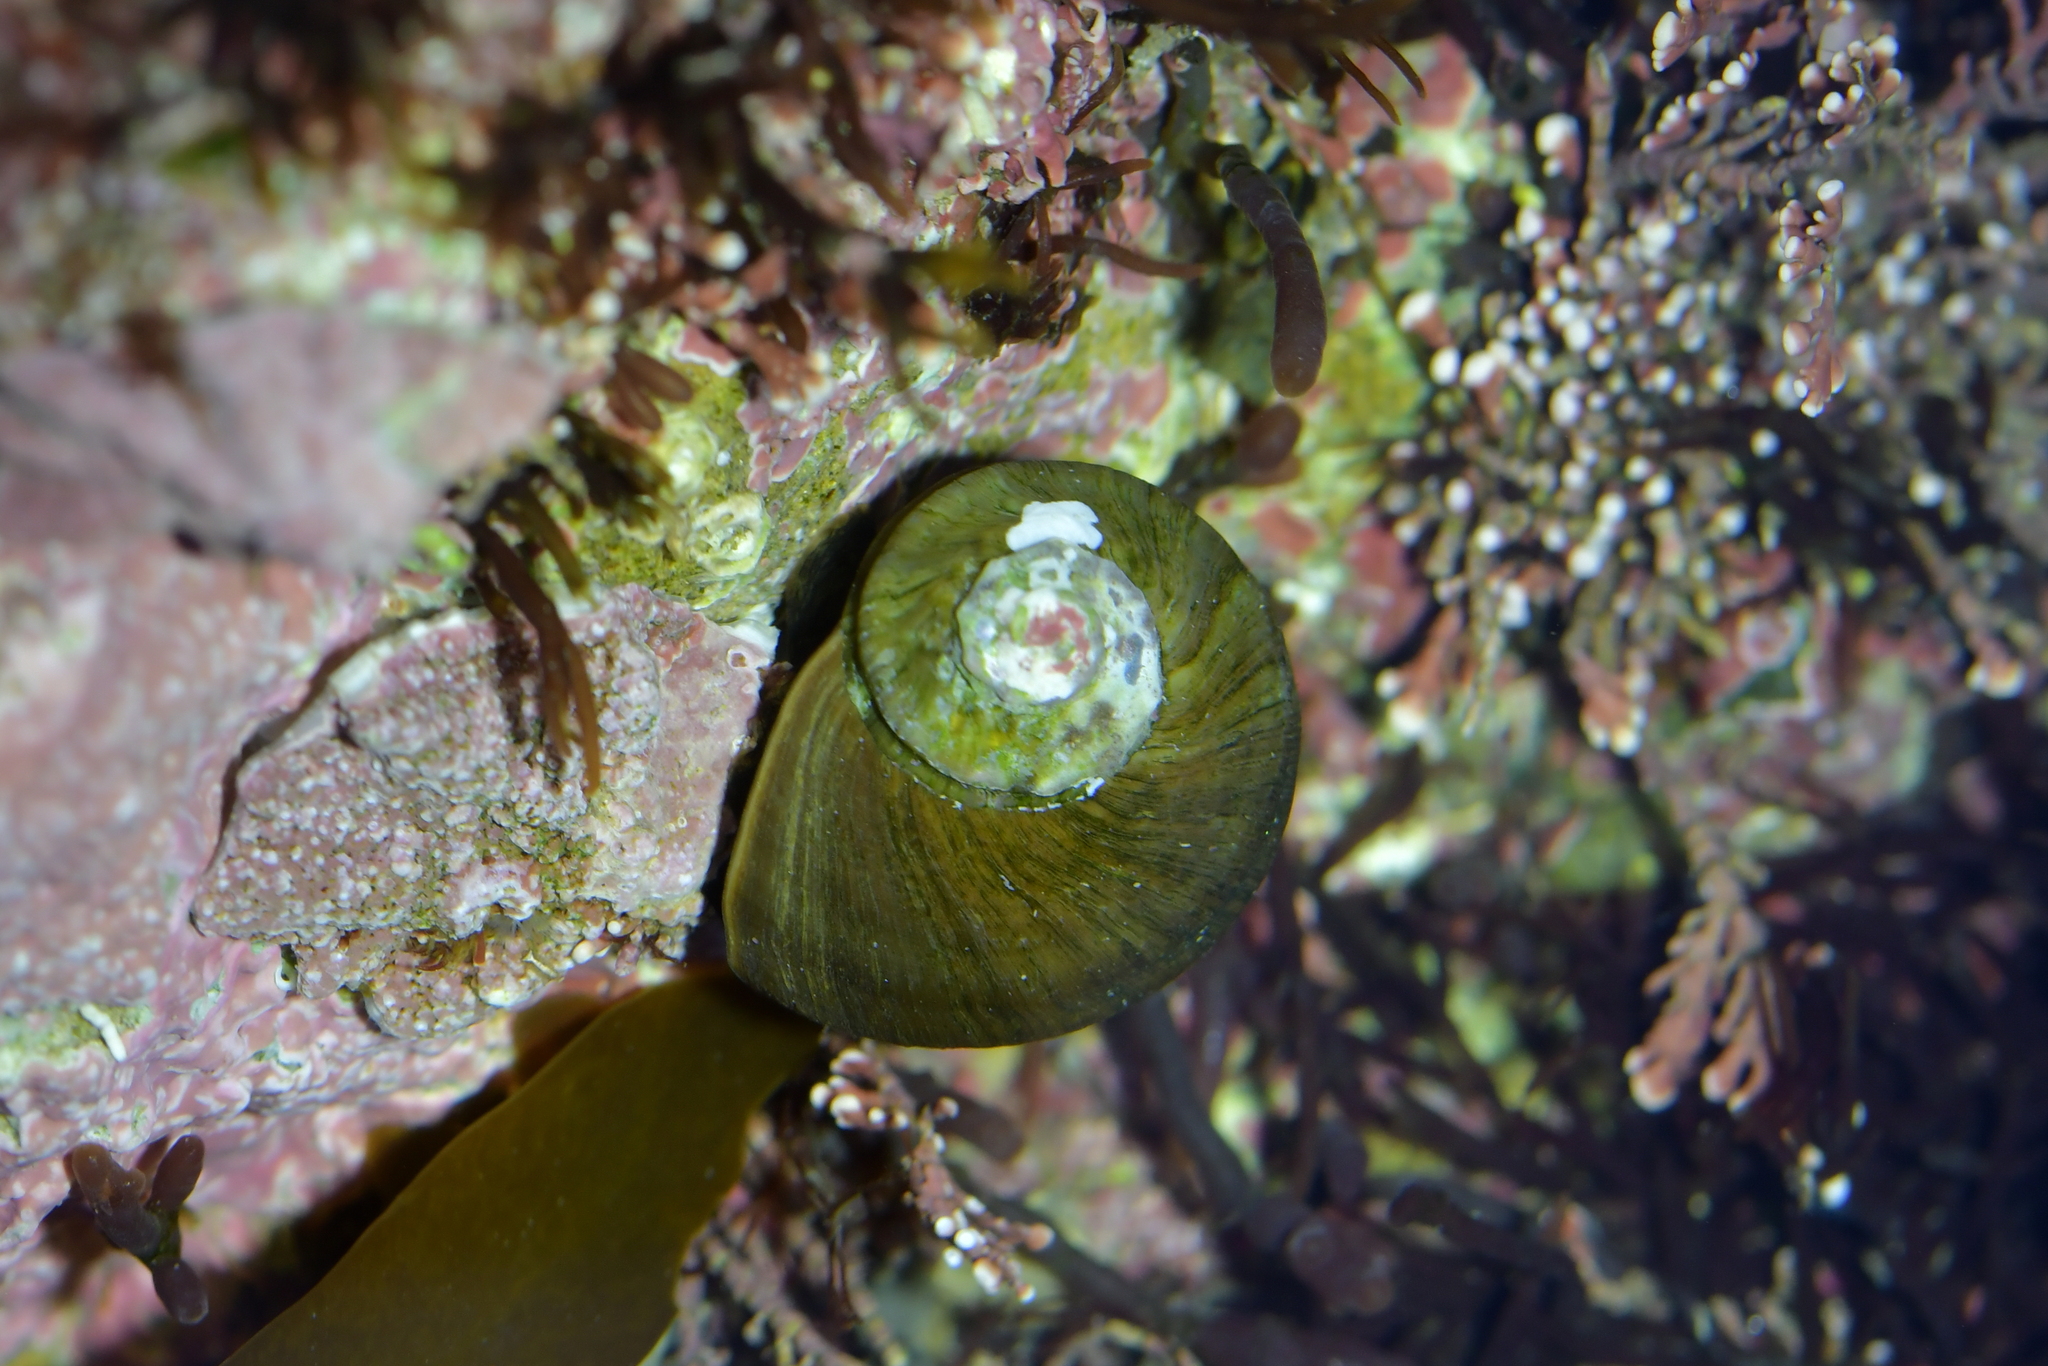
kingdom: Animalia
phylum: Mollusca
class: Gastropoda
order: Trochida
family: Turbinidae
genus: Lunella
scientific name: Lunella smaragda
